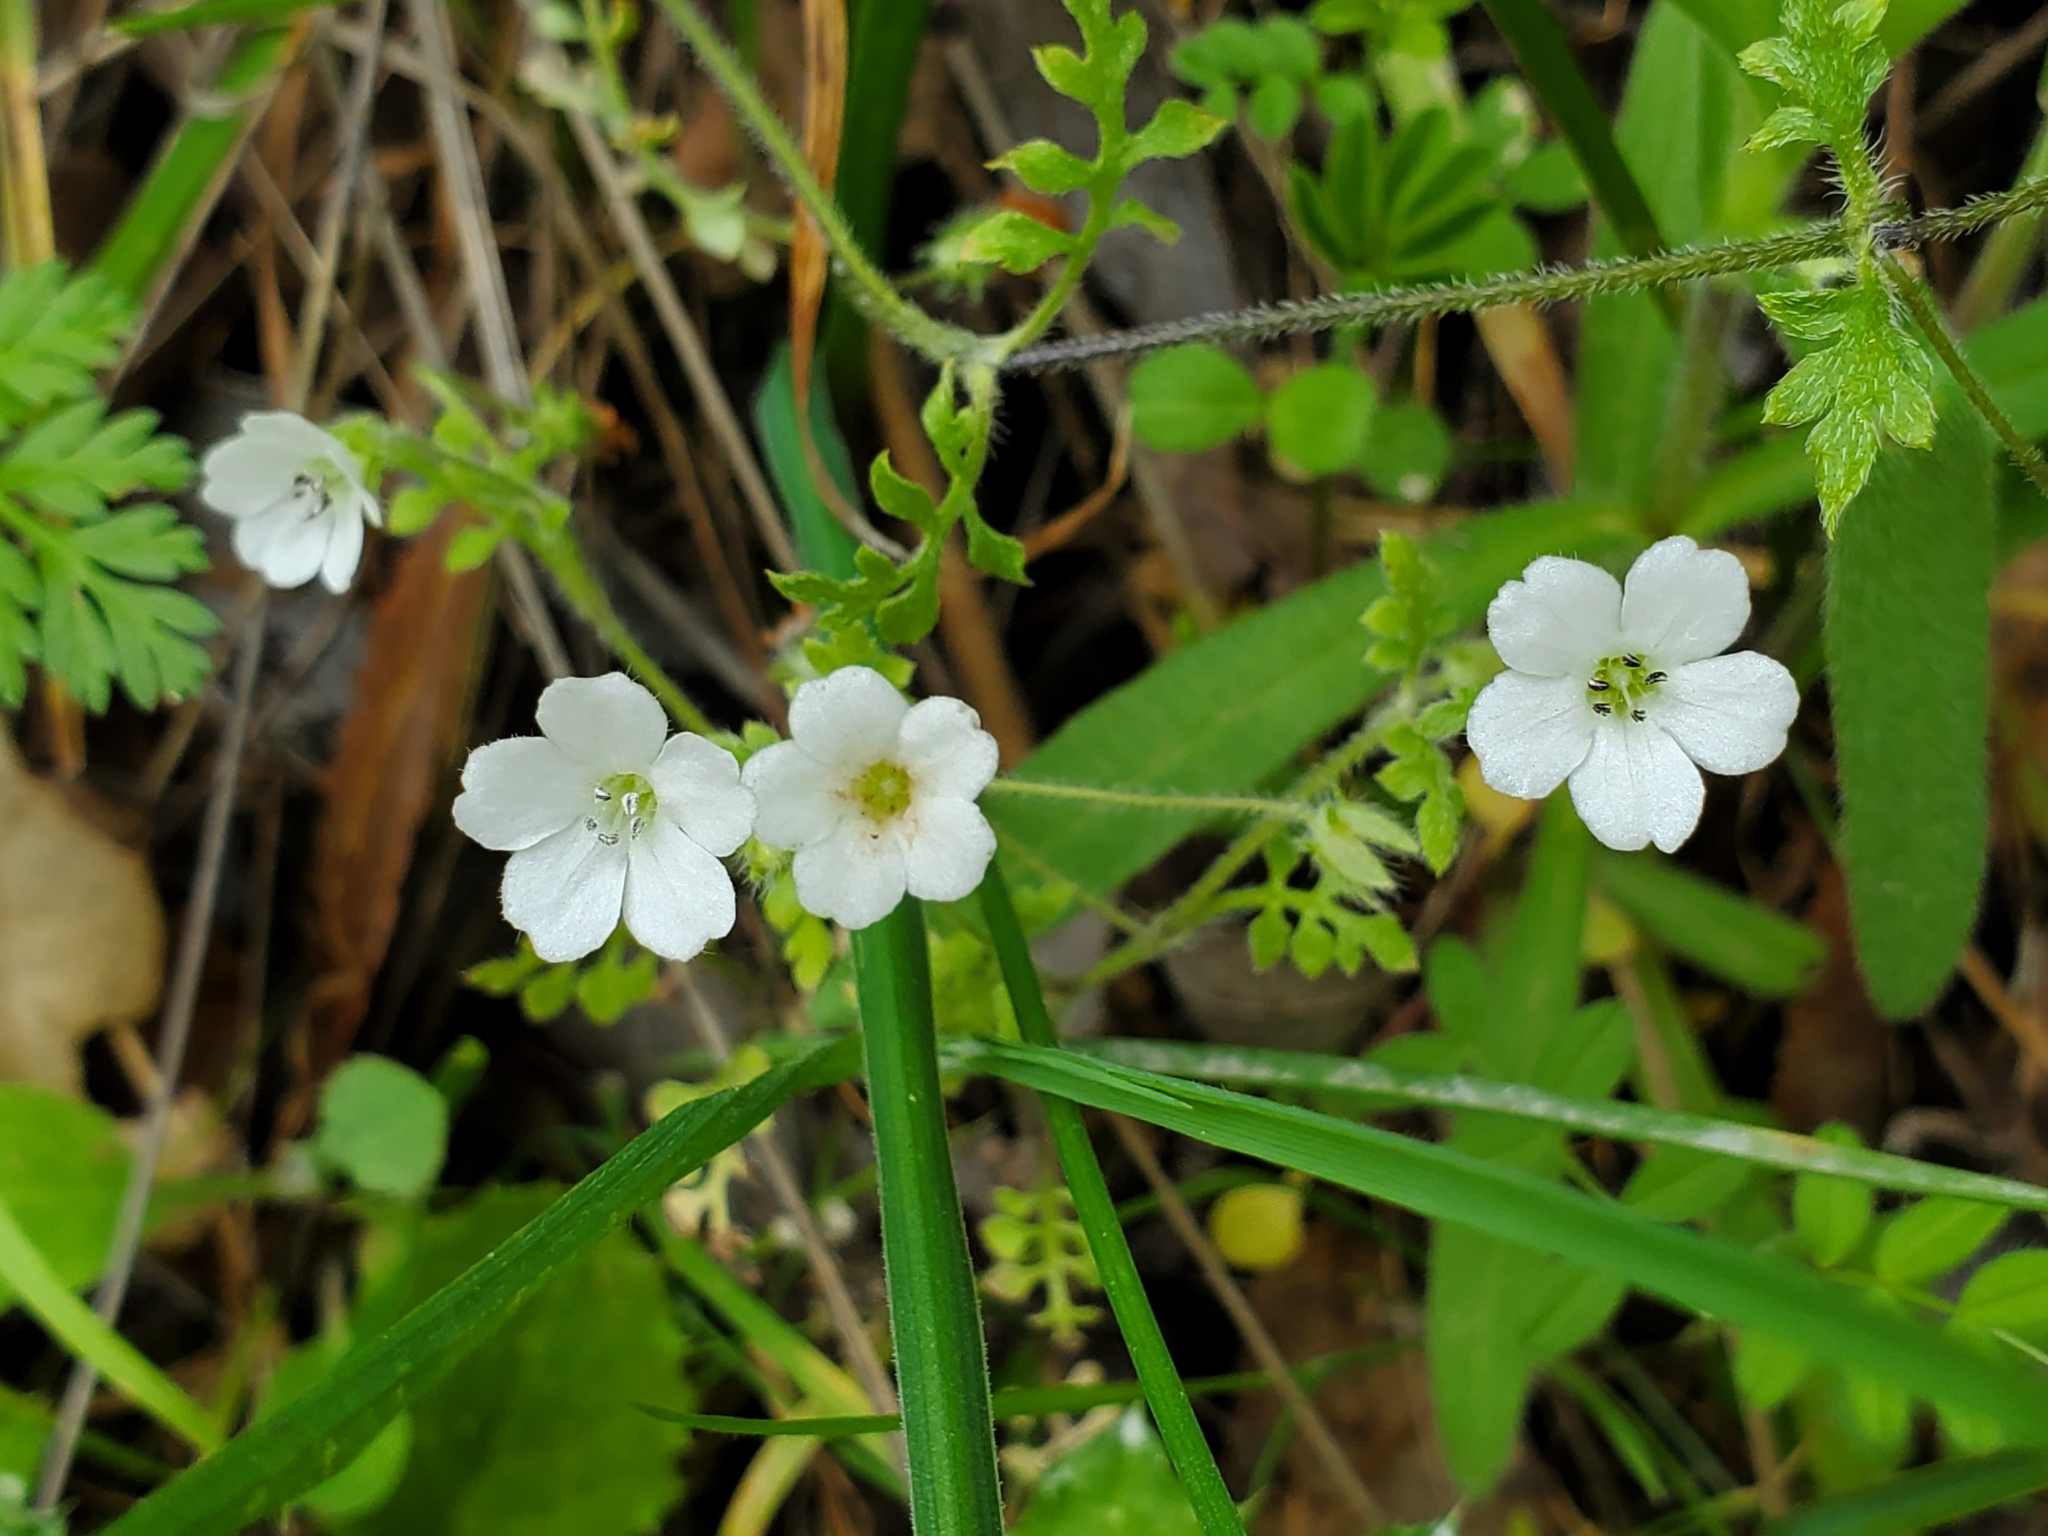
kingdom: Plantae
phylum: Tracheophyta
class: Magnoliopsida
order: Boraginales
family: Hydrophyllaceae
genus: Nemophila
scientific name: Nemophila heterophylla
